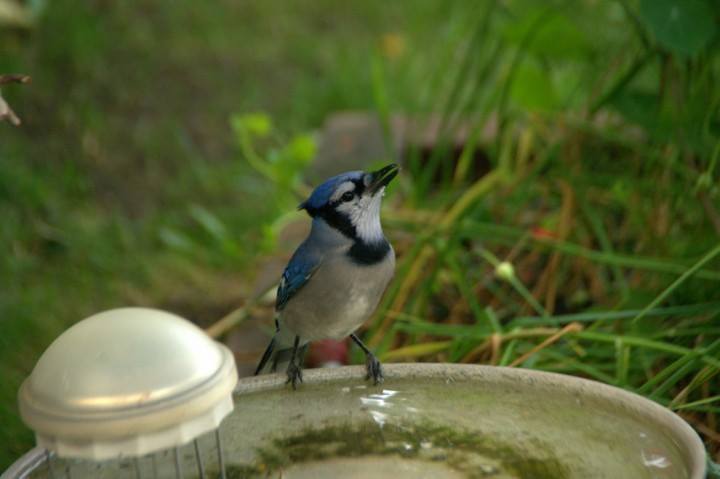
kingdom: Animalia
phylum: Chordata
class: Aves
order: Passeriformes
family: Corvidae
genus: Cyanocitta
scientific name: Cyanocitta cristata
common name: Blue jay
